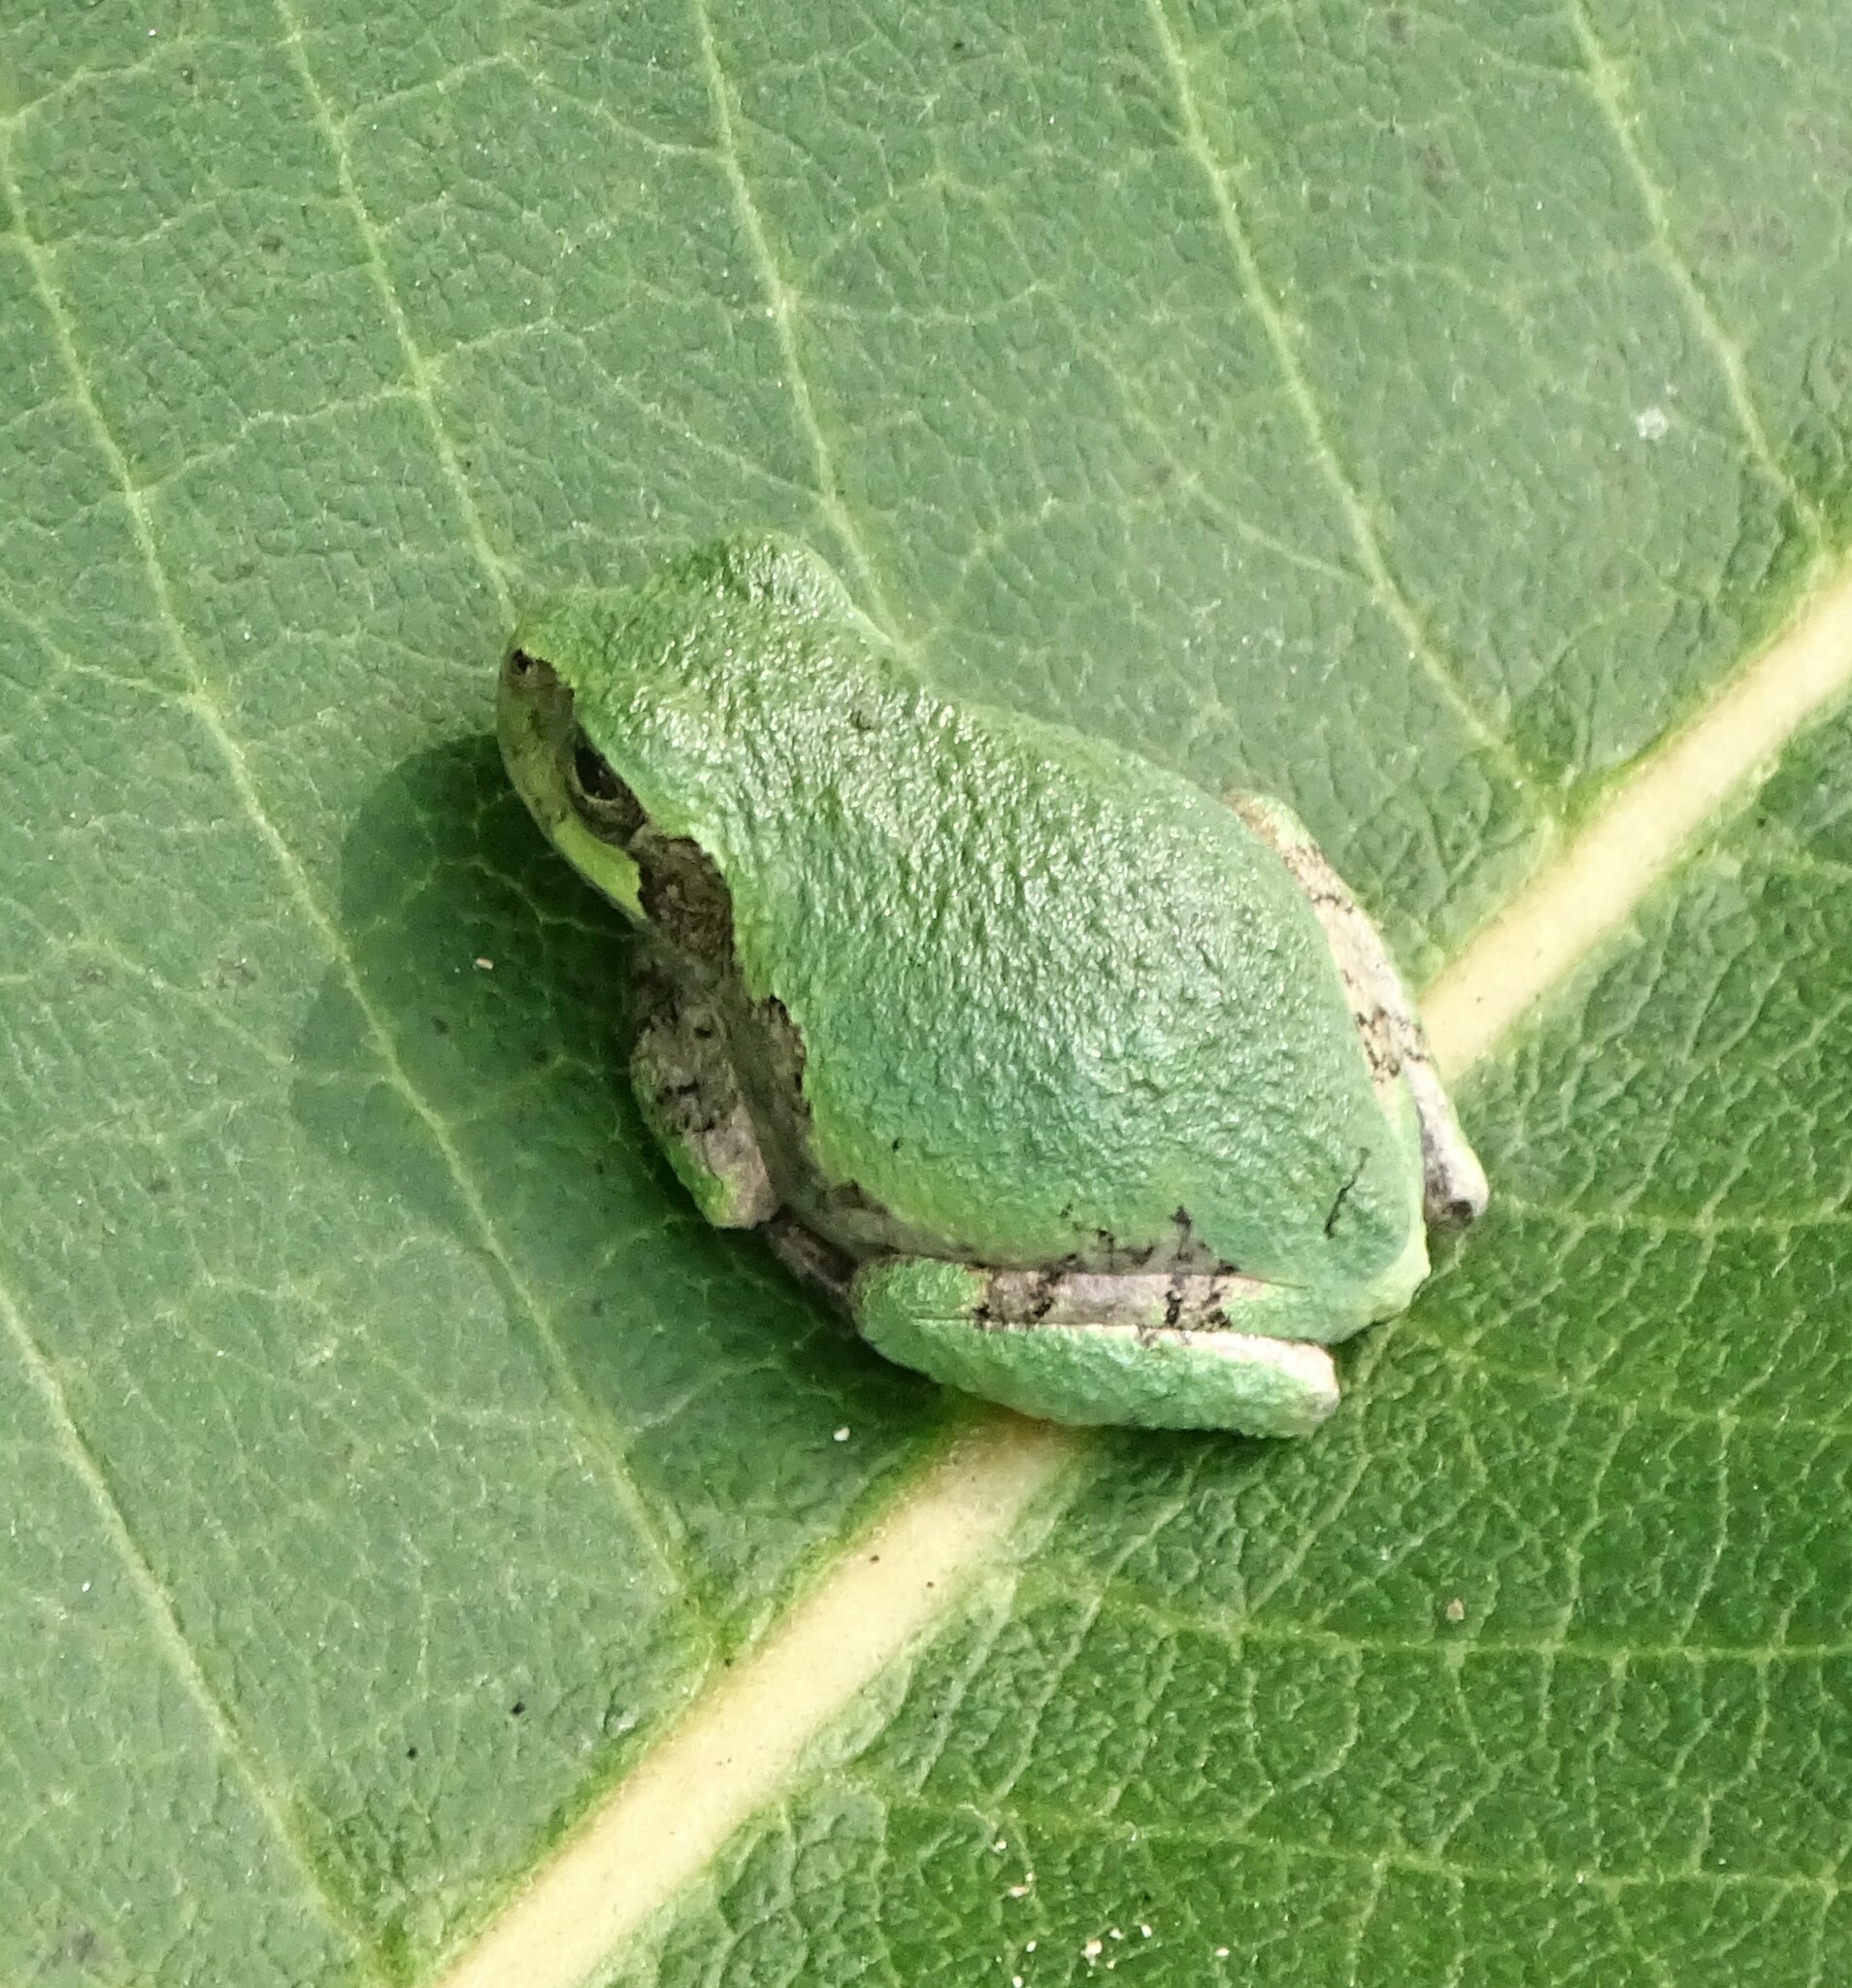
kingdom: Animalia
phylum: Chordata
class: Amphibia
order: Anura
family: Hylidae
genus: Dryophytes
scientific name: Dryophytes versicolor
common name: Gray treefrog
